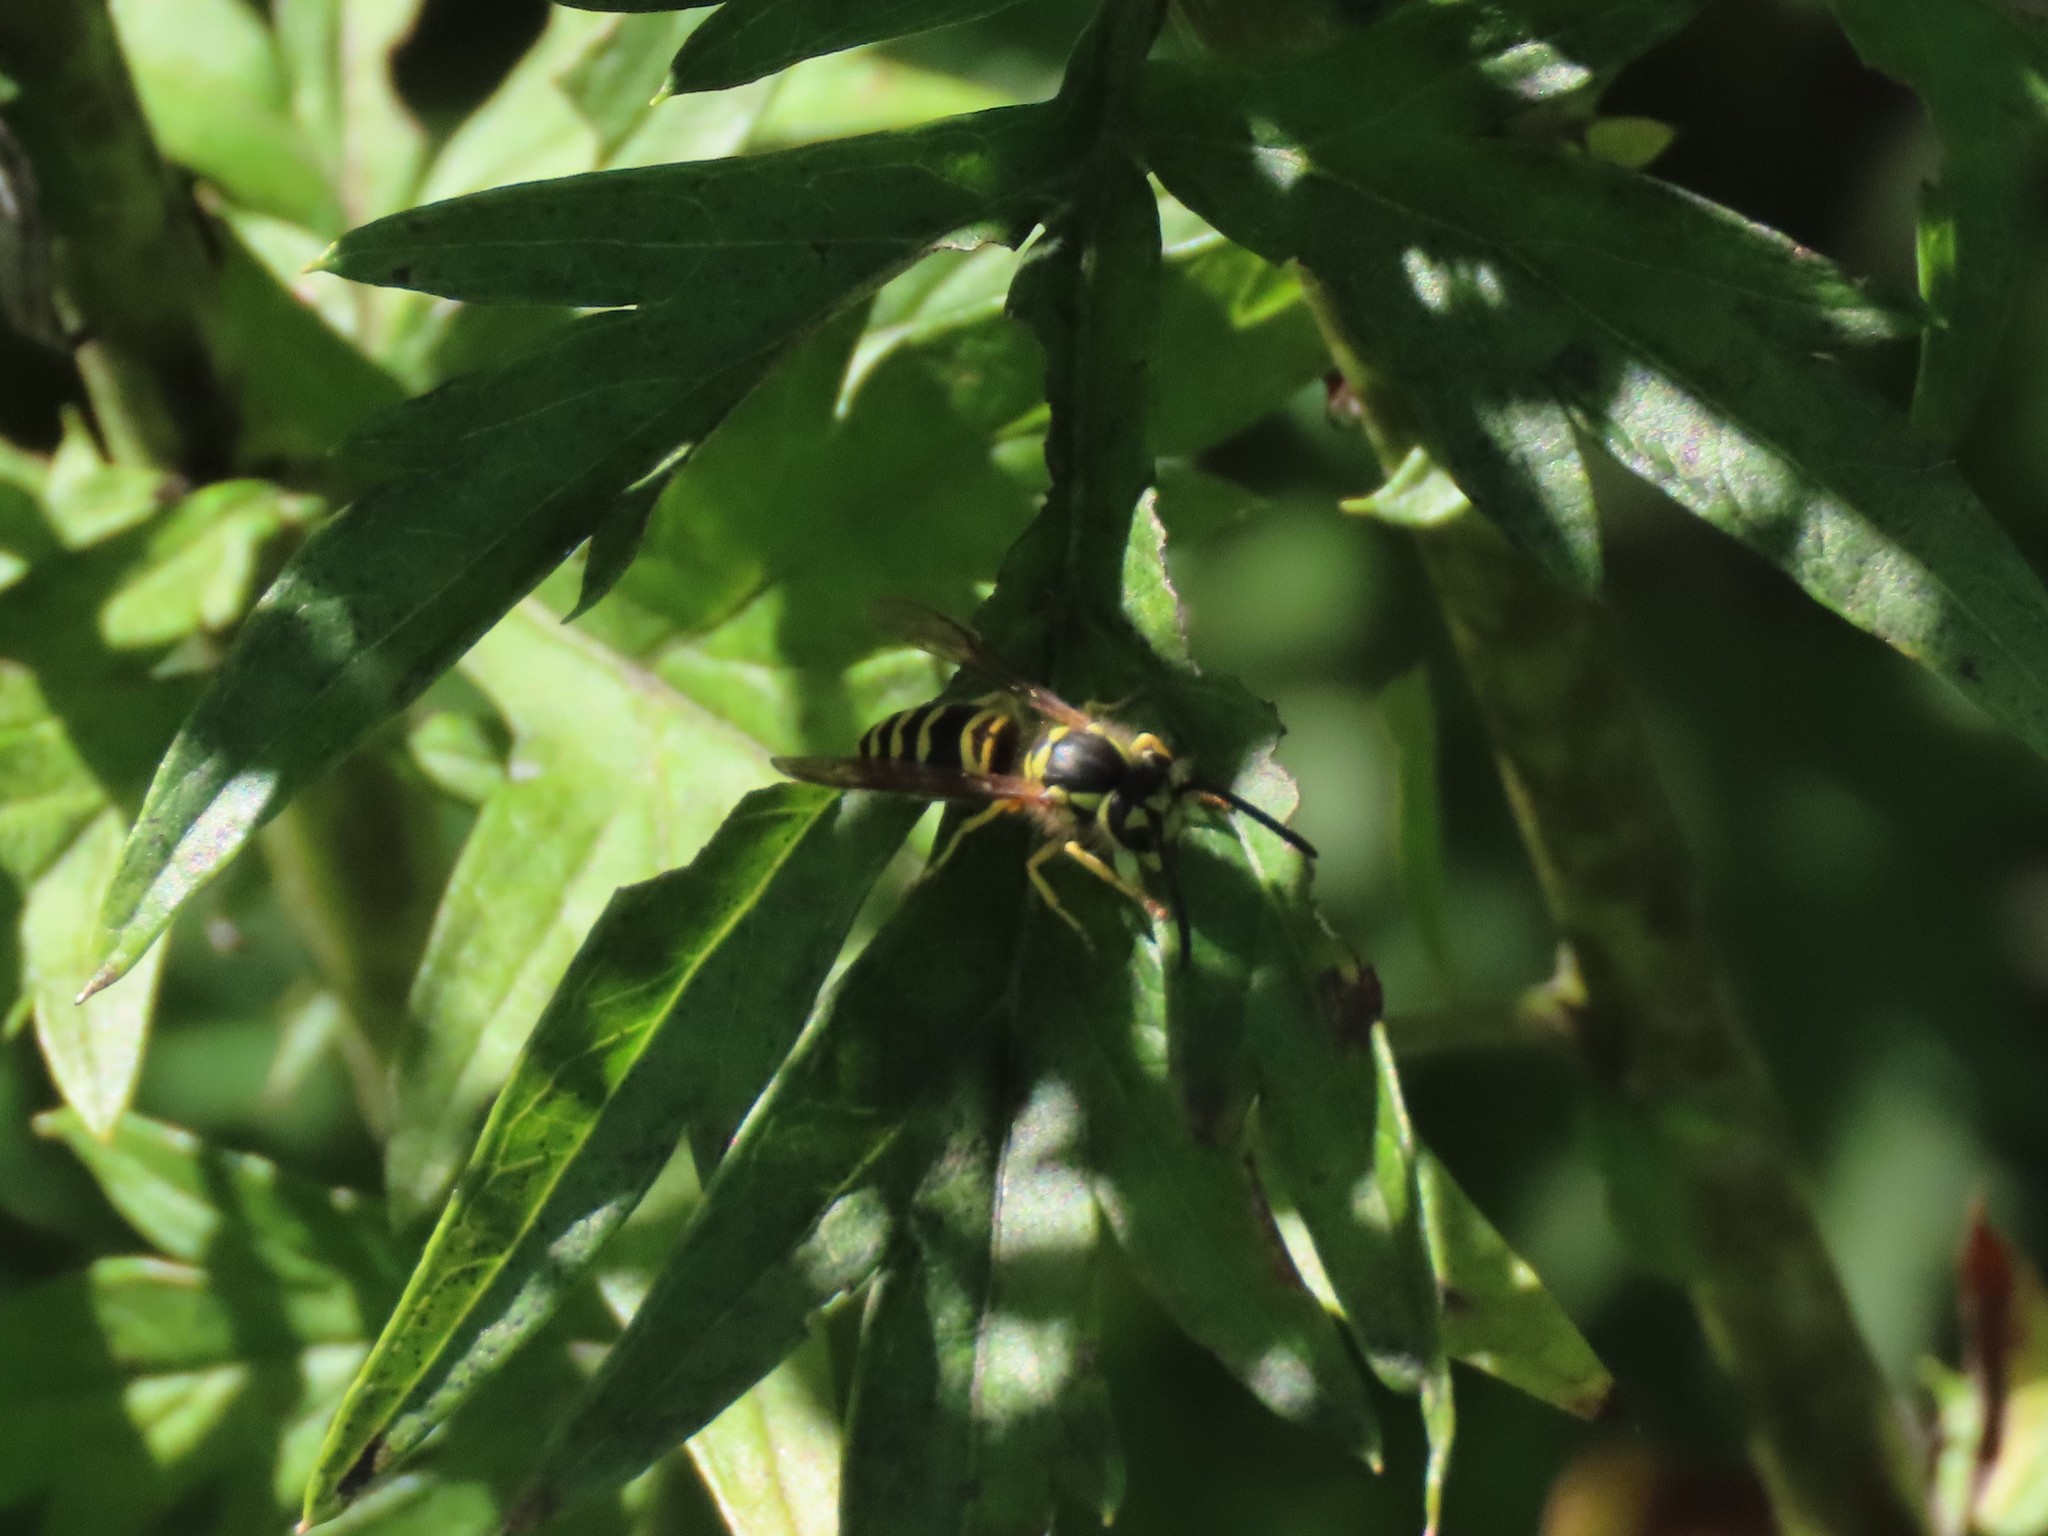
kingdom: Animalia
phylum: Arthropoda
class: Insecta
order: Hymenoptera
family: Vespidae
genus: Vespula
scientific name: Vespula maculifrons
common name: Eastern yellowjacket
